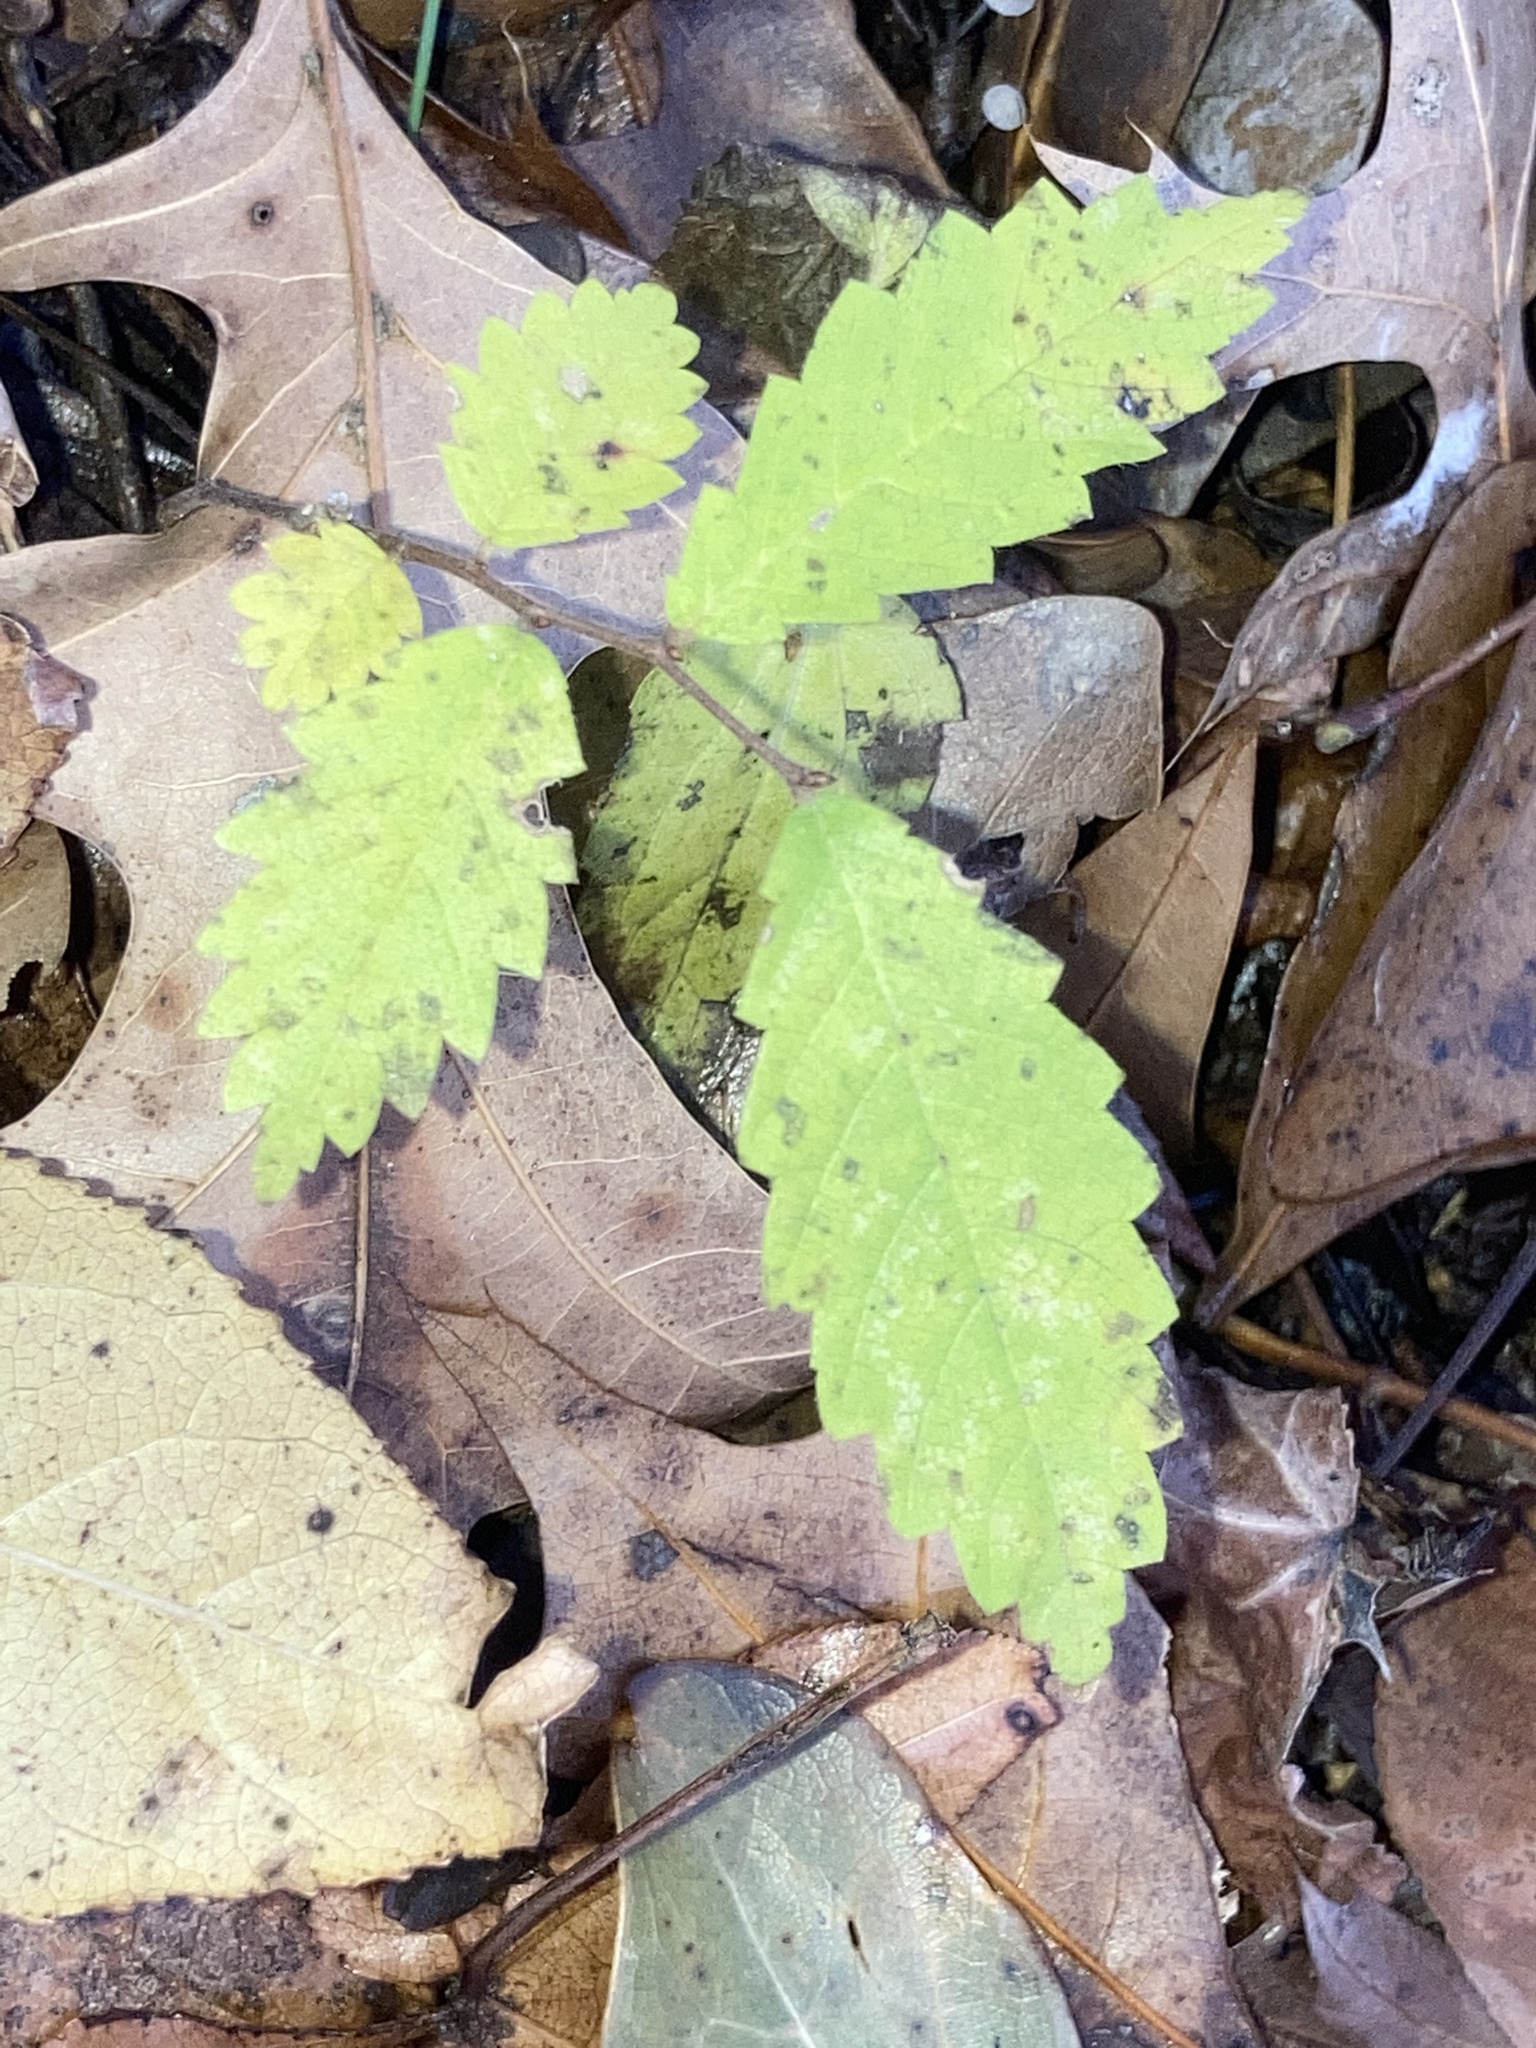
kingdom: Plantae
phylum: Tracheophyta
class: Magnoliopsida
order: Rosales
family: Ulmaceae
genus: Ulmus
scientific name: Ulmus alata
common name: Winged elm
